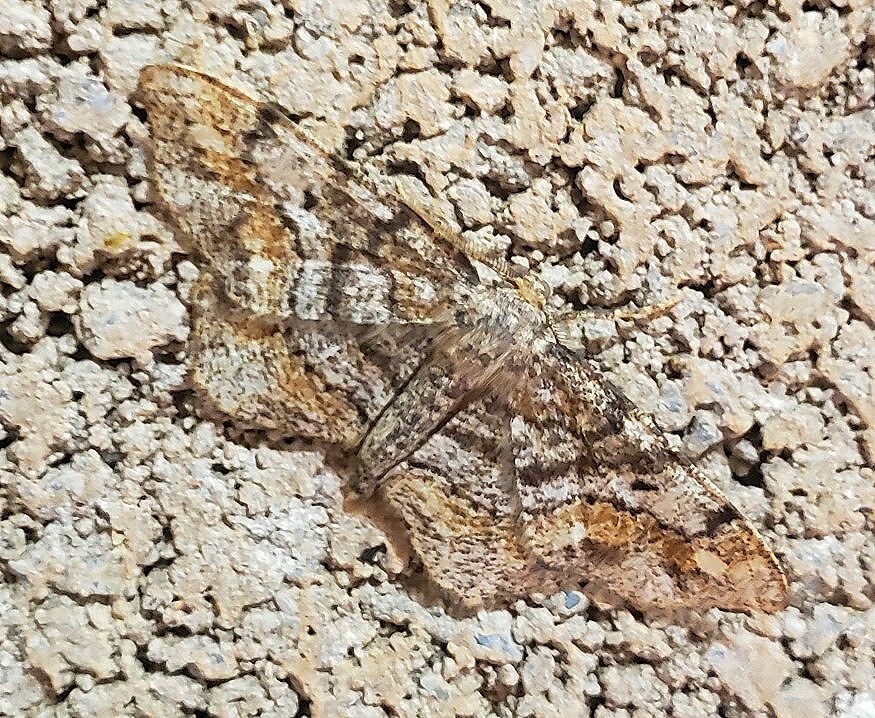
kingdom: Animalia
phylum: Arthropoda
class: Insecta
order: Lepidoptera
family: Geometridae
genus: Hypagyrtis
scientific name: Hypagyrtis unipunctata
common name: One-spotted variant
